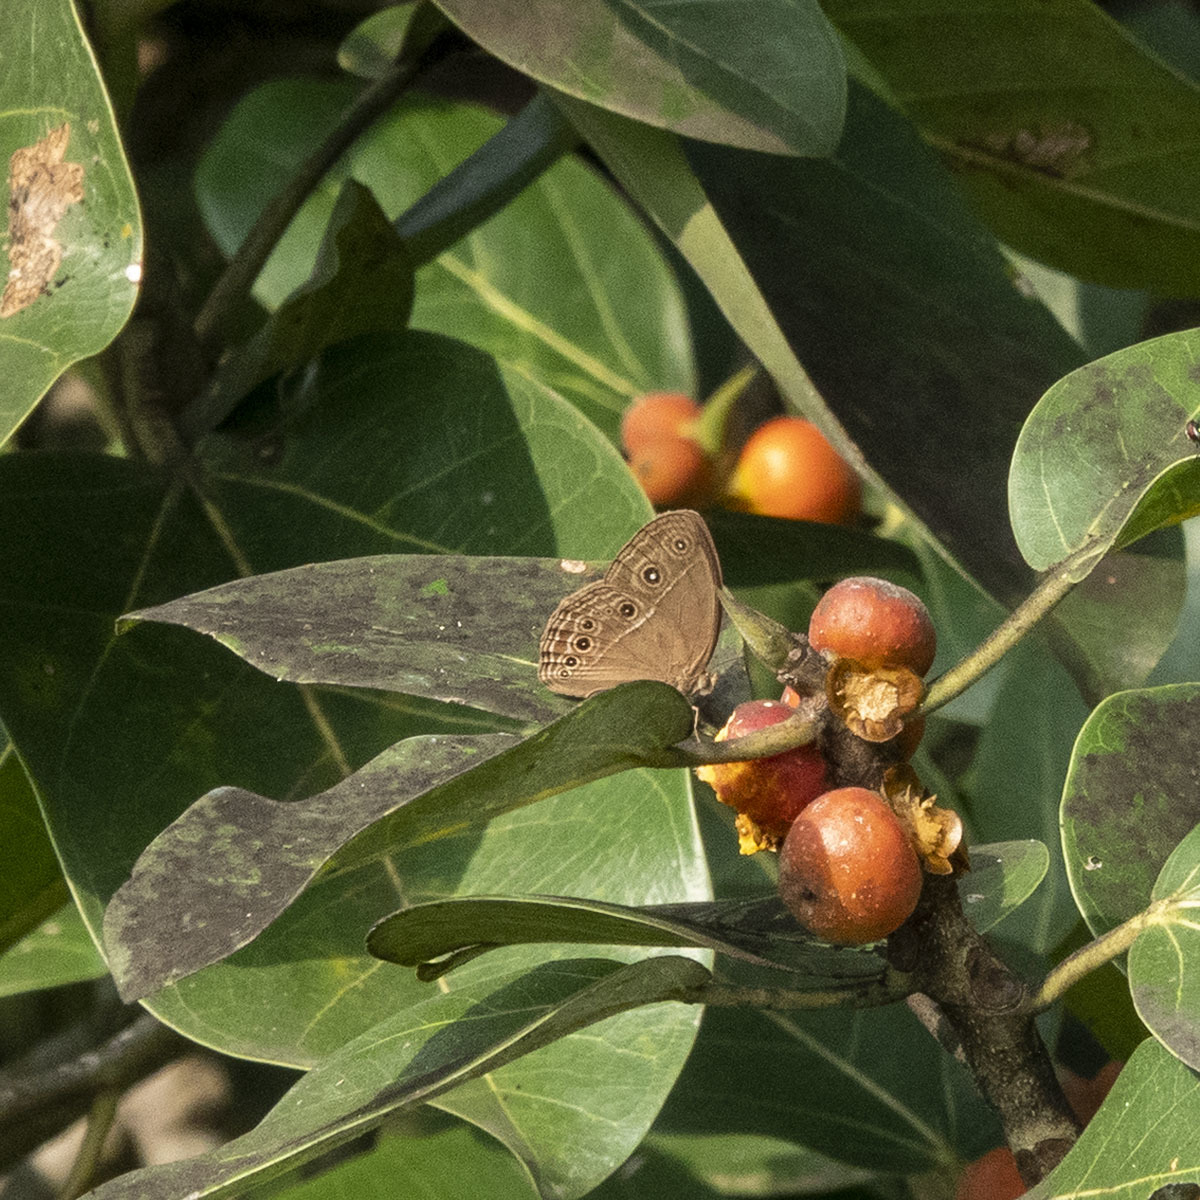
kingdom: Animalia
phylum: Arthropoda
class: Insecta
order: Lepidoptera
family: Nymphalidae
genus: Mycalesis
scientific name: Mycalesis perseus
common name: Dingy bushbrown
